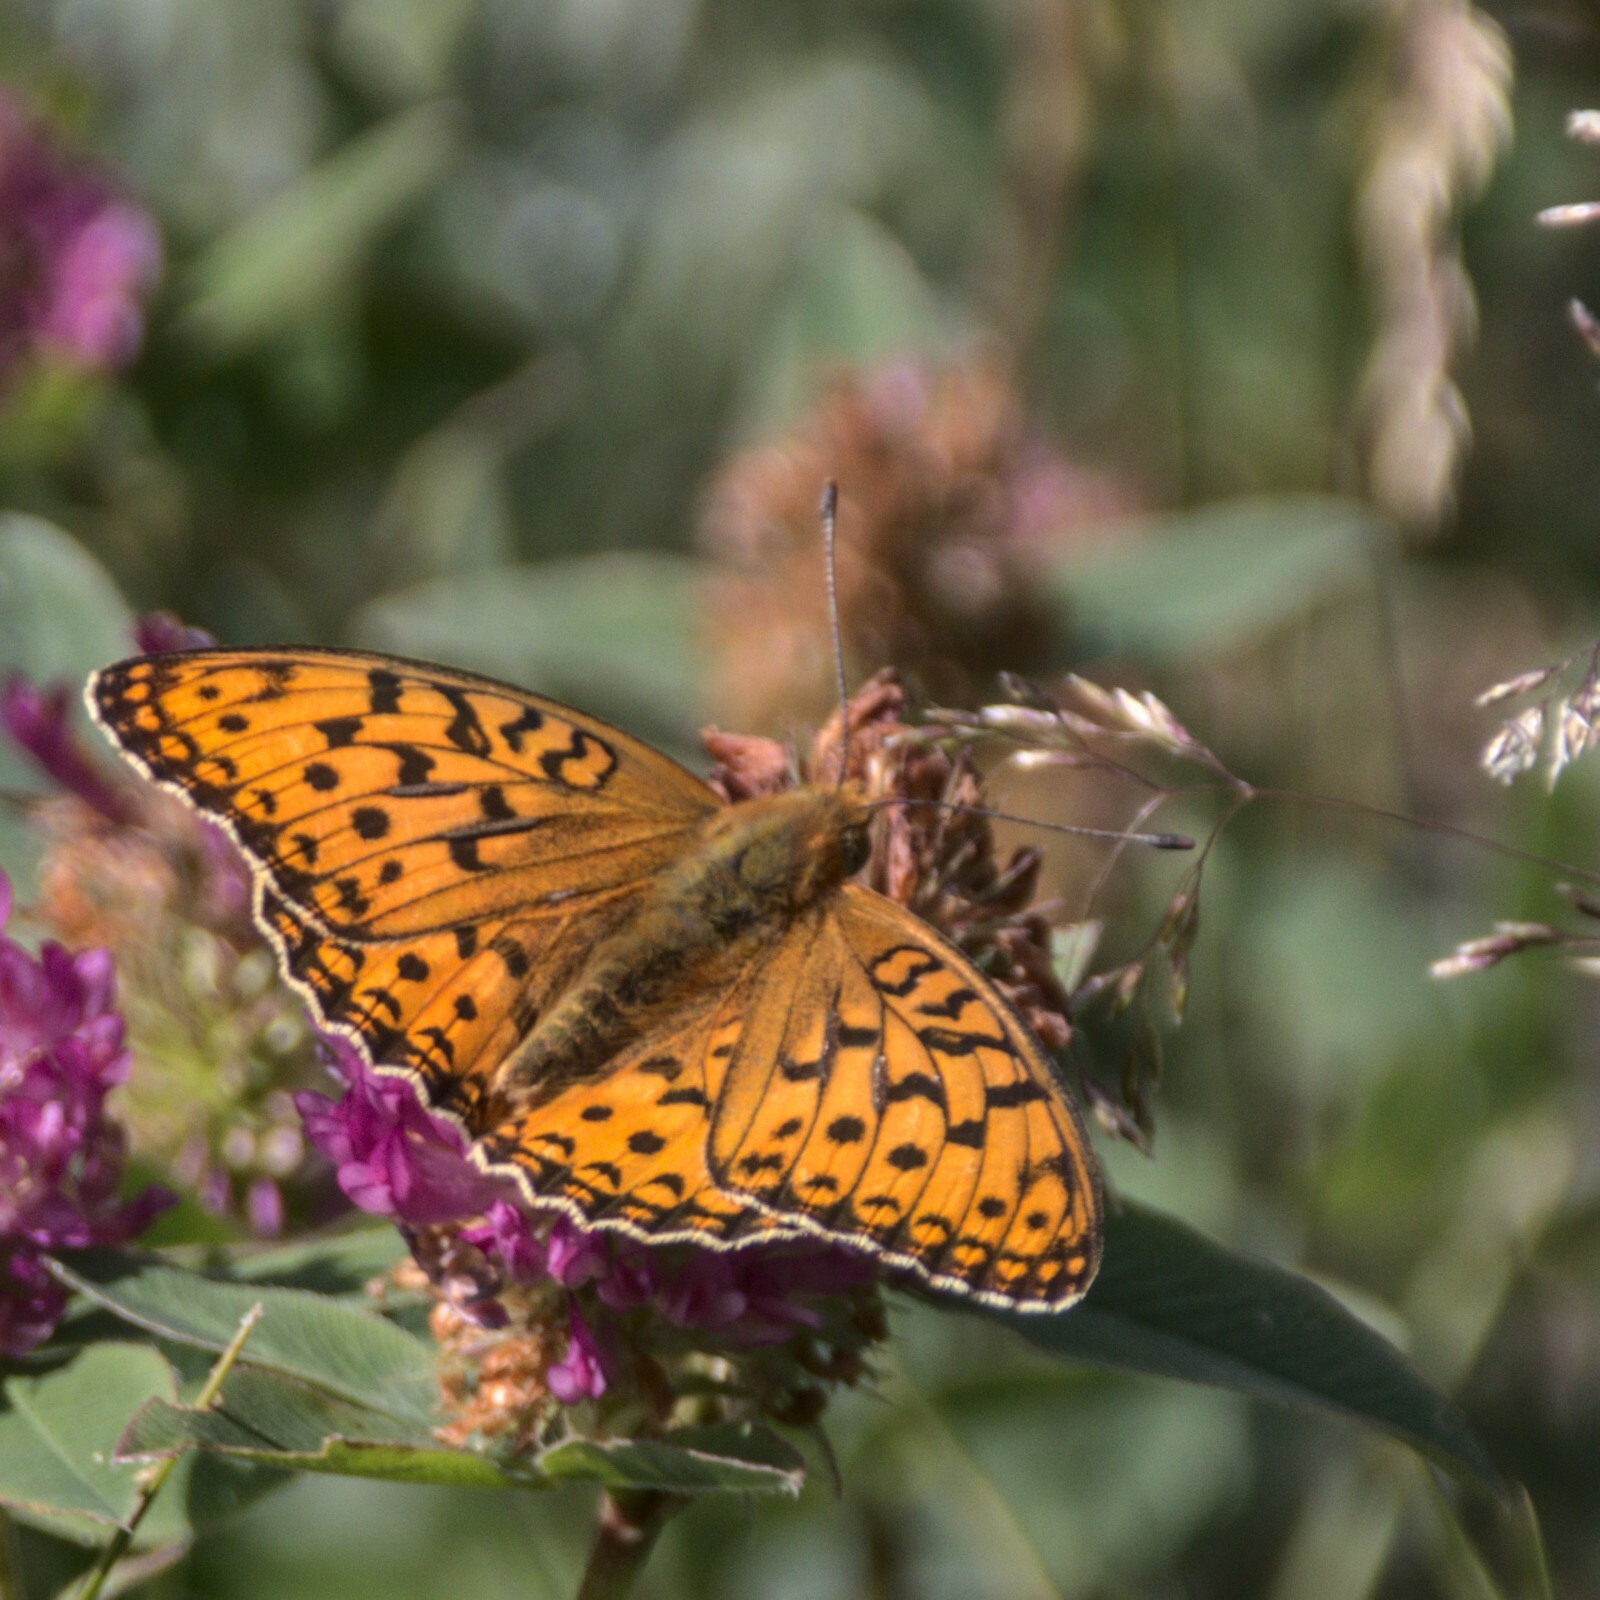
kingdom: Animalia
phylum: Arthropoda
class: Insecta
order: Lepidoptera
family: Nymphalidae
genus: Fabriciana
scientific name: Fabriciana adippe
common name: High brown fritillary
